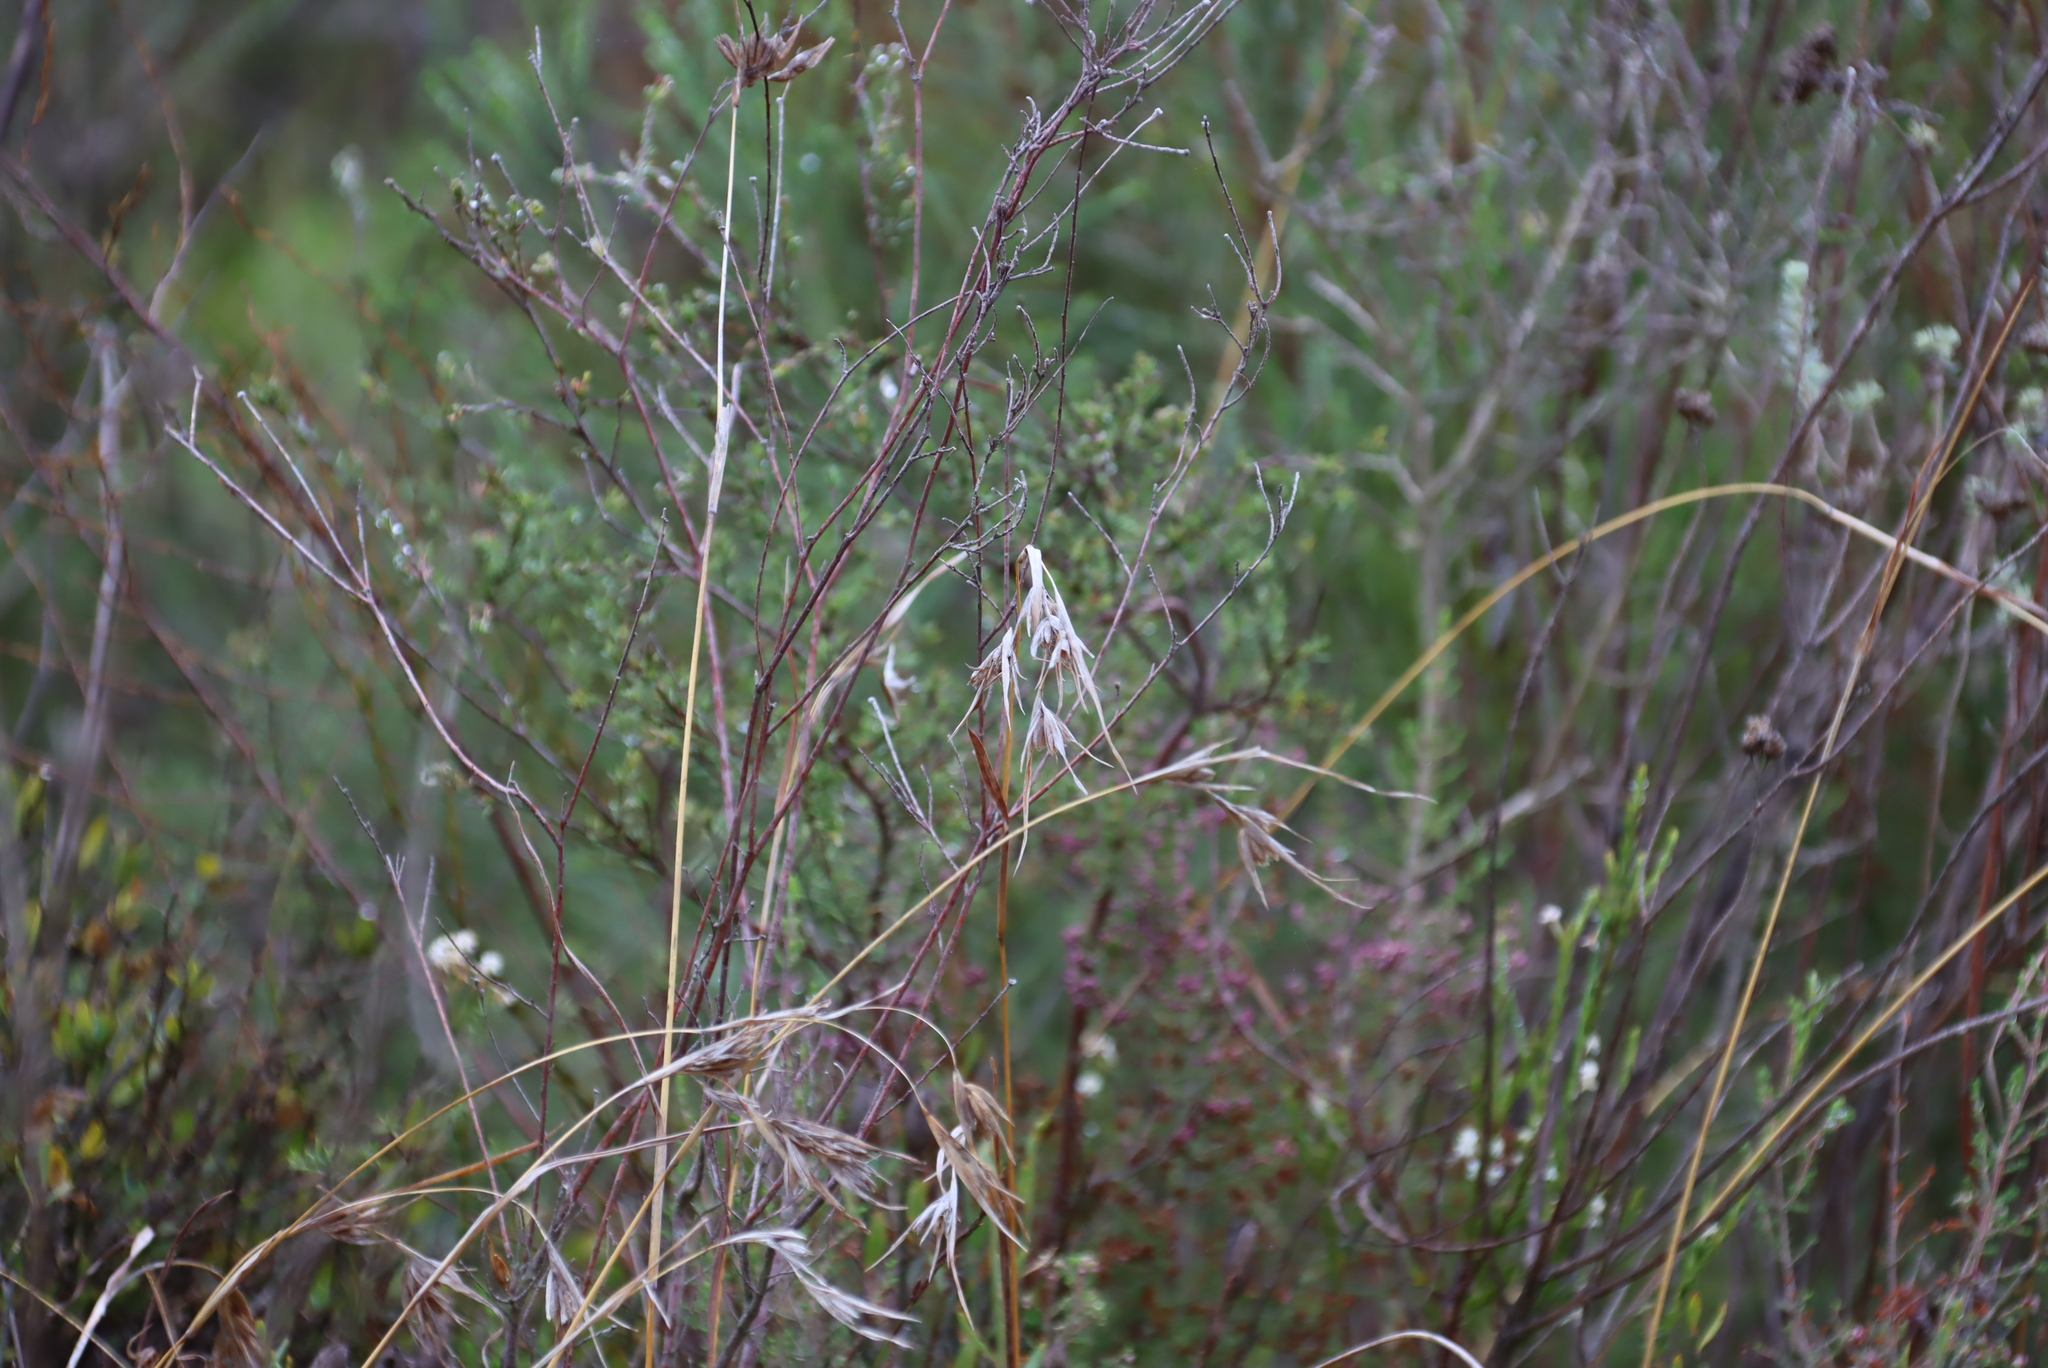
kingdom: Plantae
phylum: Tracheophyta
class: Liliopsida
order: Poales
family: Poaceae
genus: Themeda
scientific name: Themeda triandra
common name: Kangaroo grass
